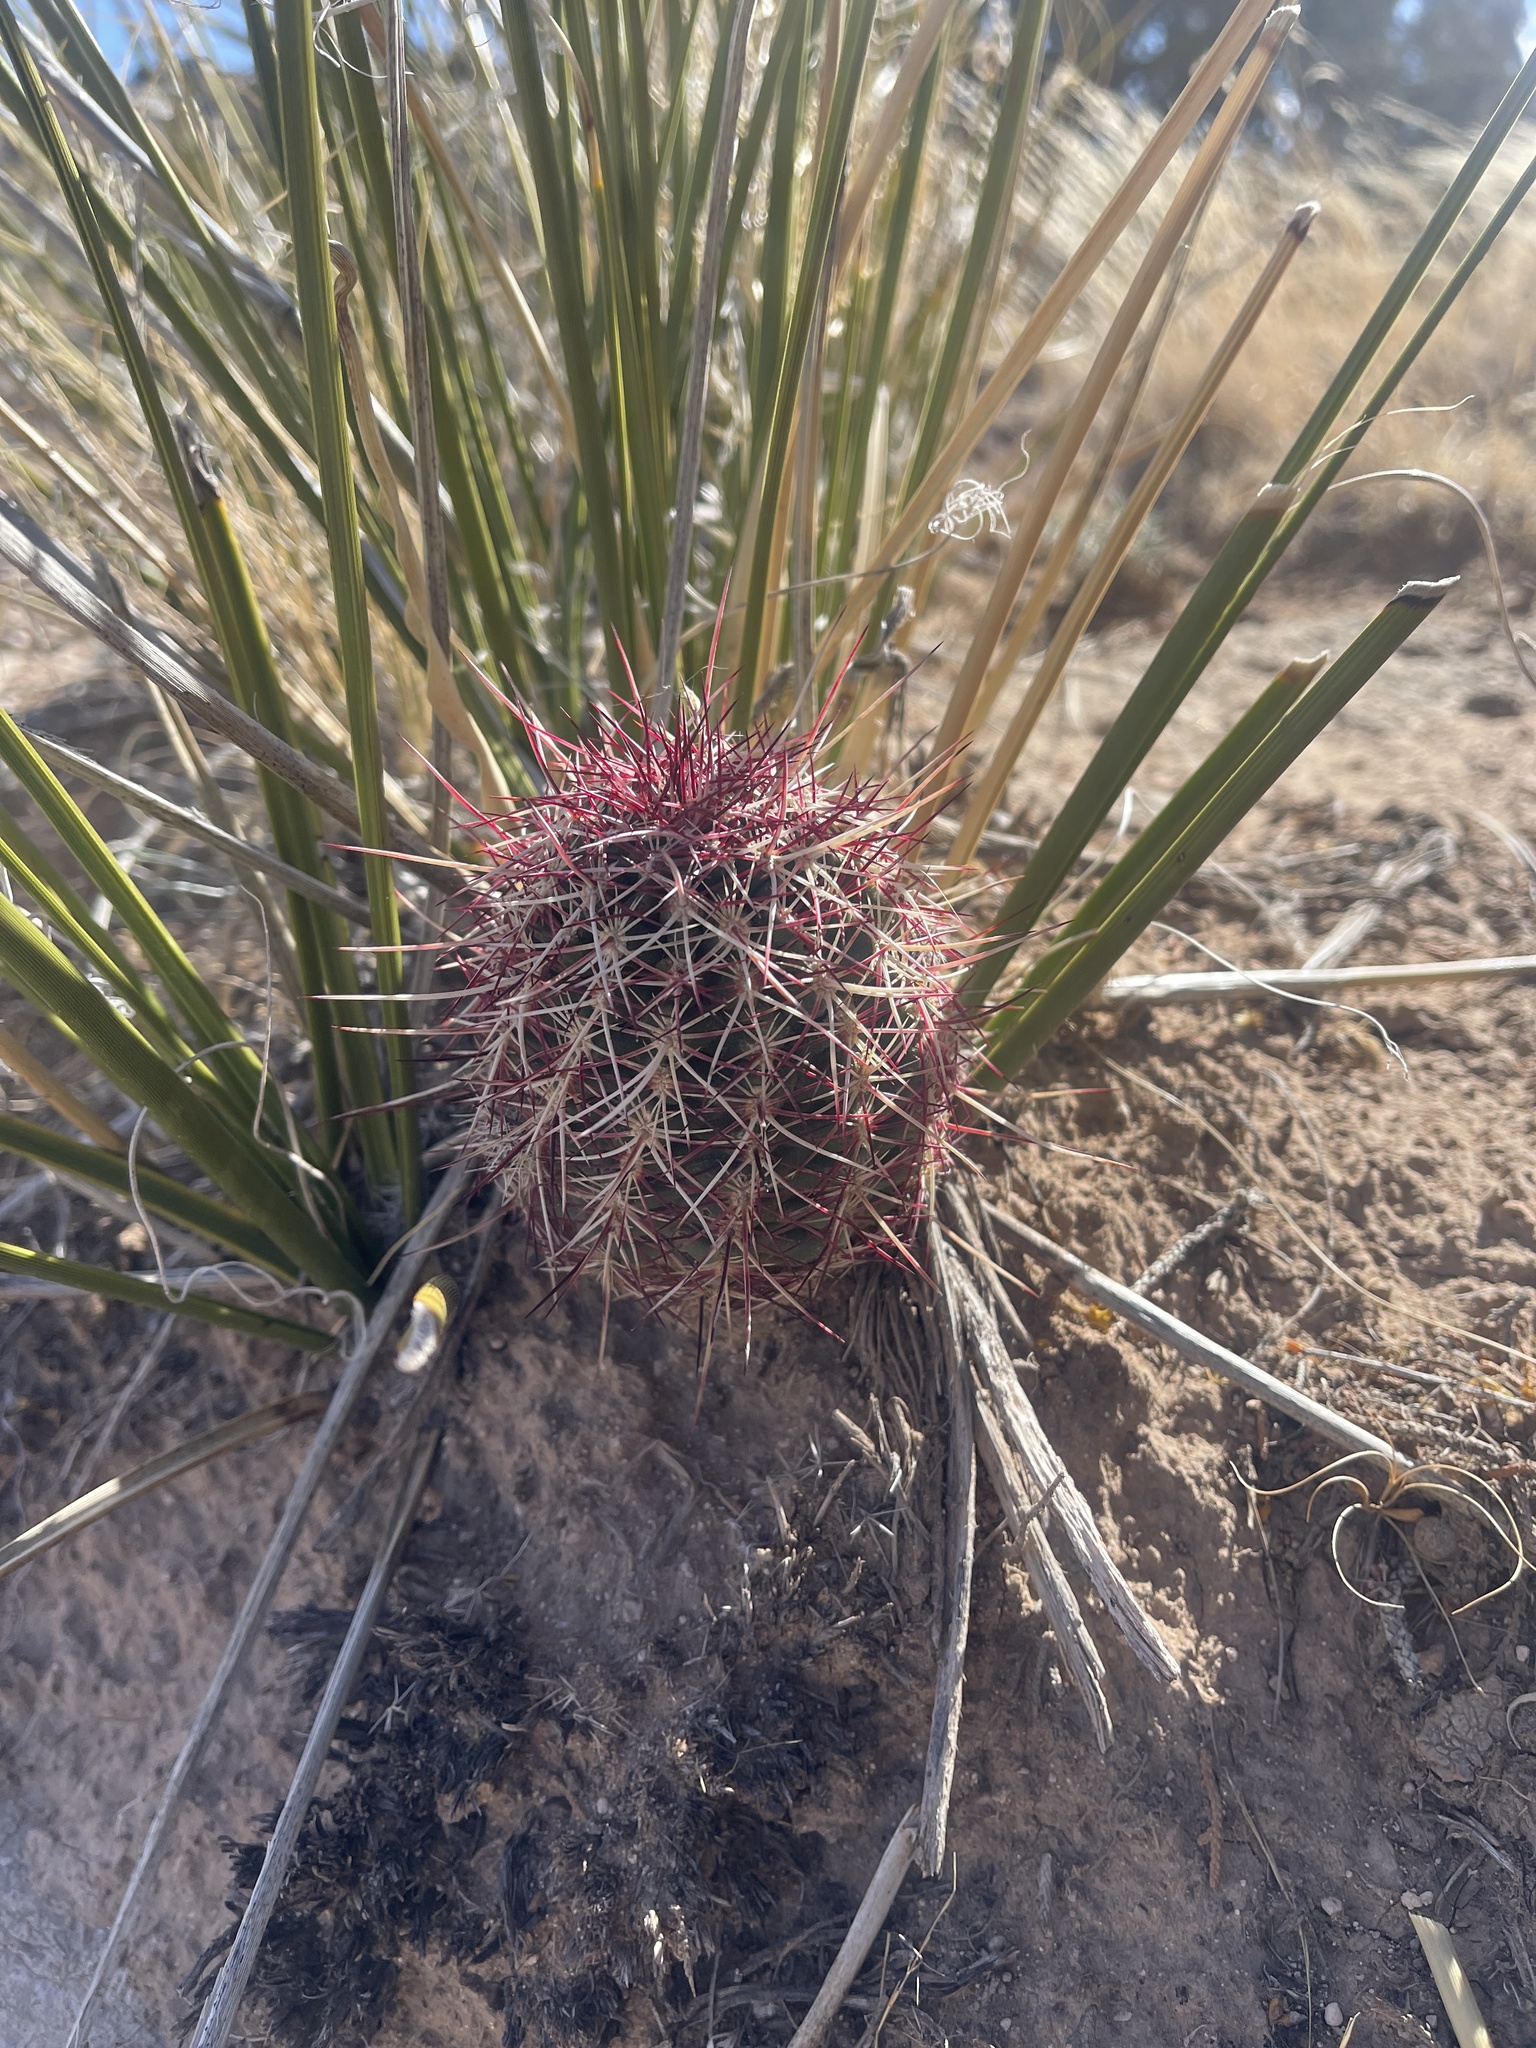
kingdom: Plantae
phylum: Tracheophyta
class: Magnoliopsida
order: Caryophyllales
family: Cactaceae
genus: Echinocereus
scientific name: Echinocereus viridiflorus
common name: Nylon hedgehog cactus
